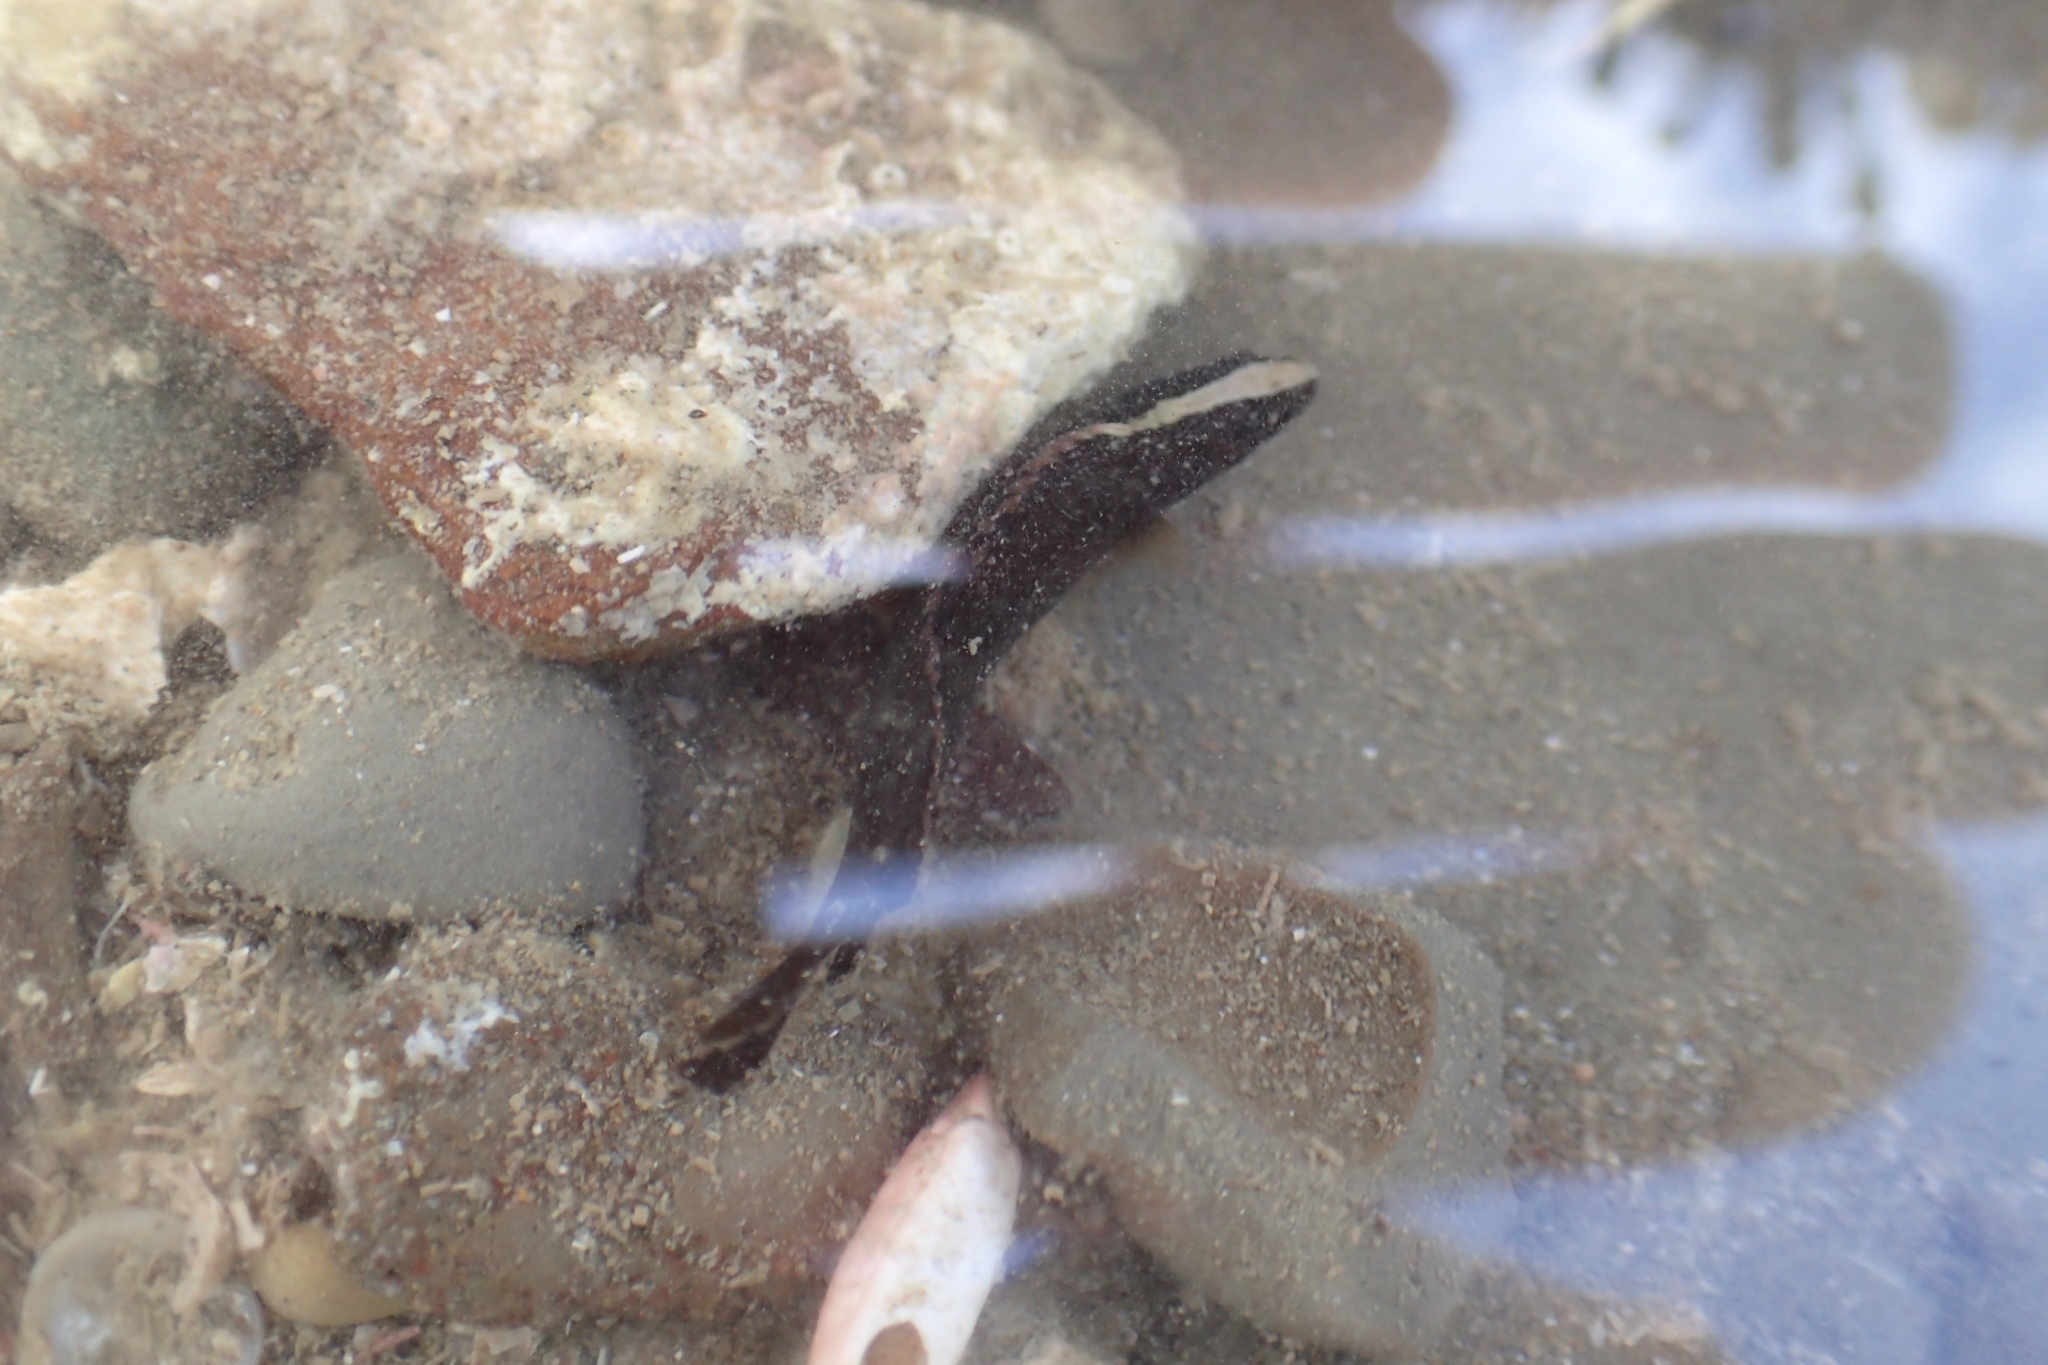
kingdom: Animalia
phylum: Chordata
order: Perciformes
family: Plesiopidae
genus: Acanthoclinus
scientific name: Acanthoclinus fuscus
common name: Olive rockfish
